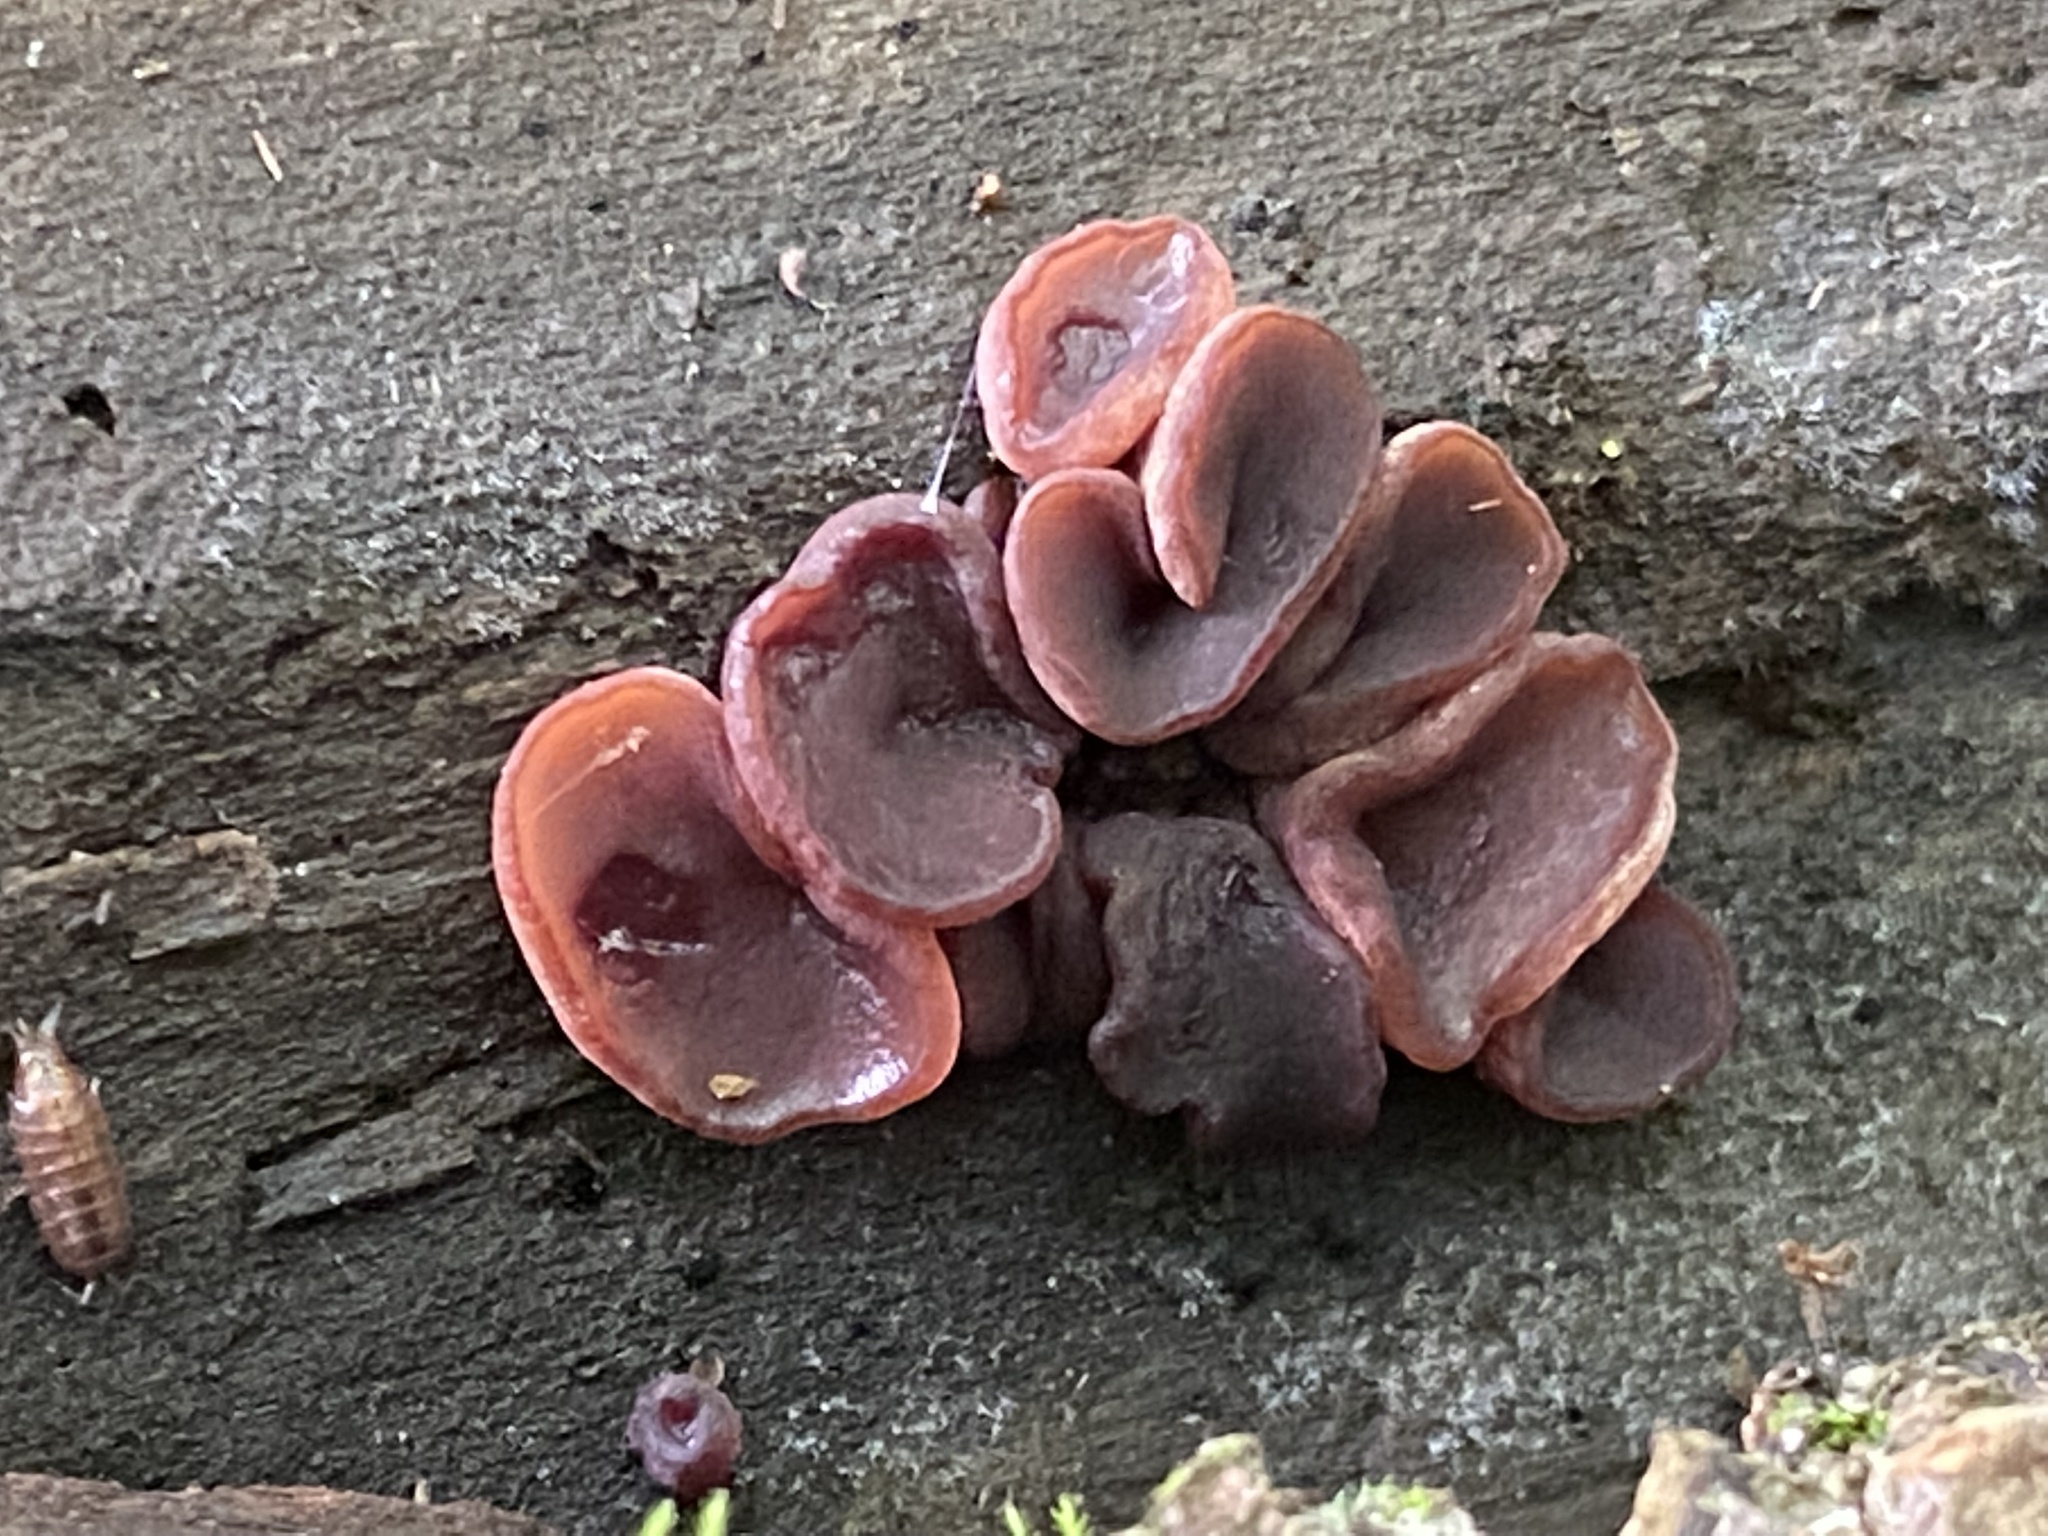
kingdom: Fungi
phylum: Ascomycota
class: Leotiomycetes
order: Helotiales
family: Gelatinodiscaceae
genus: Ascocoryne
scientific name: Ascocoryne sarcoides
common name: Purple jellydisc
